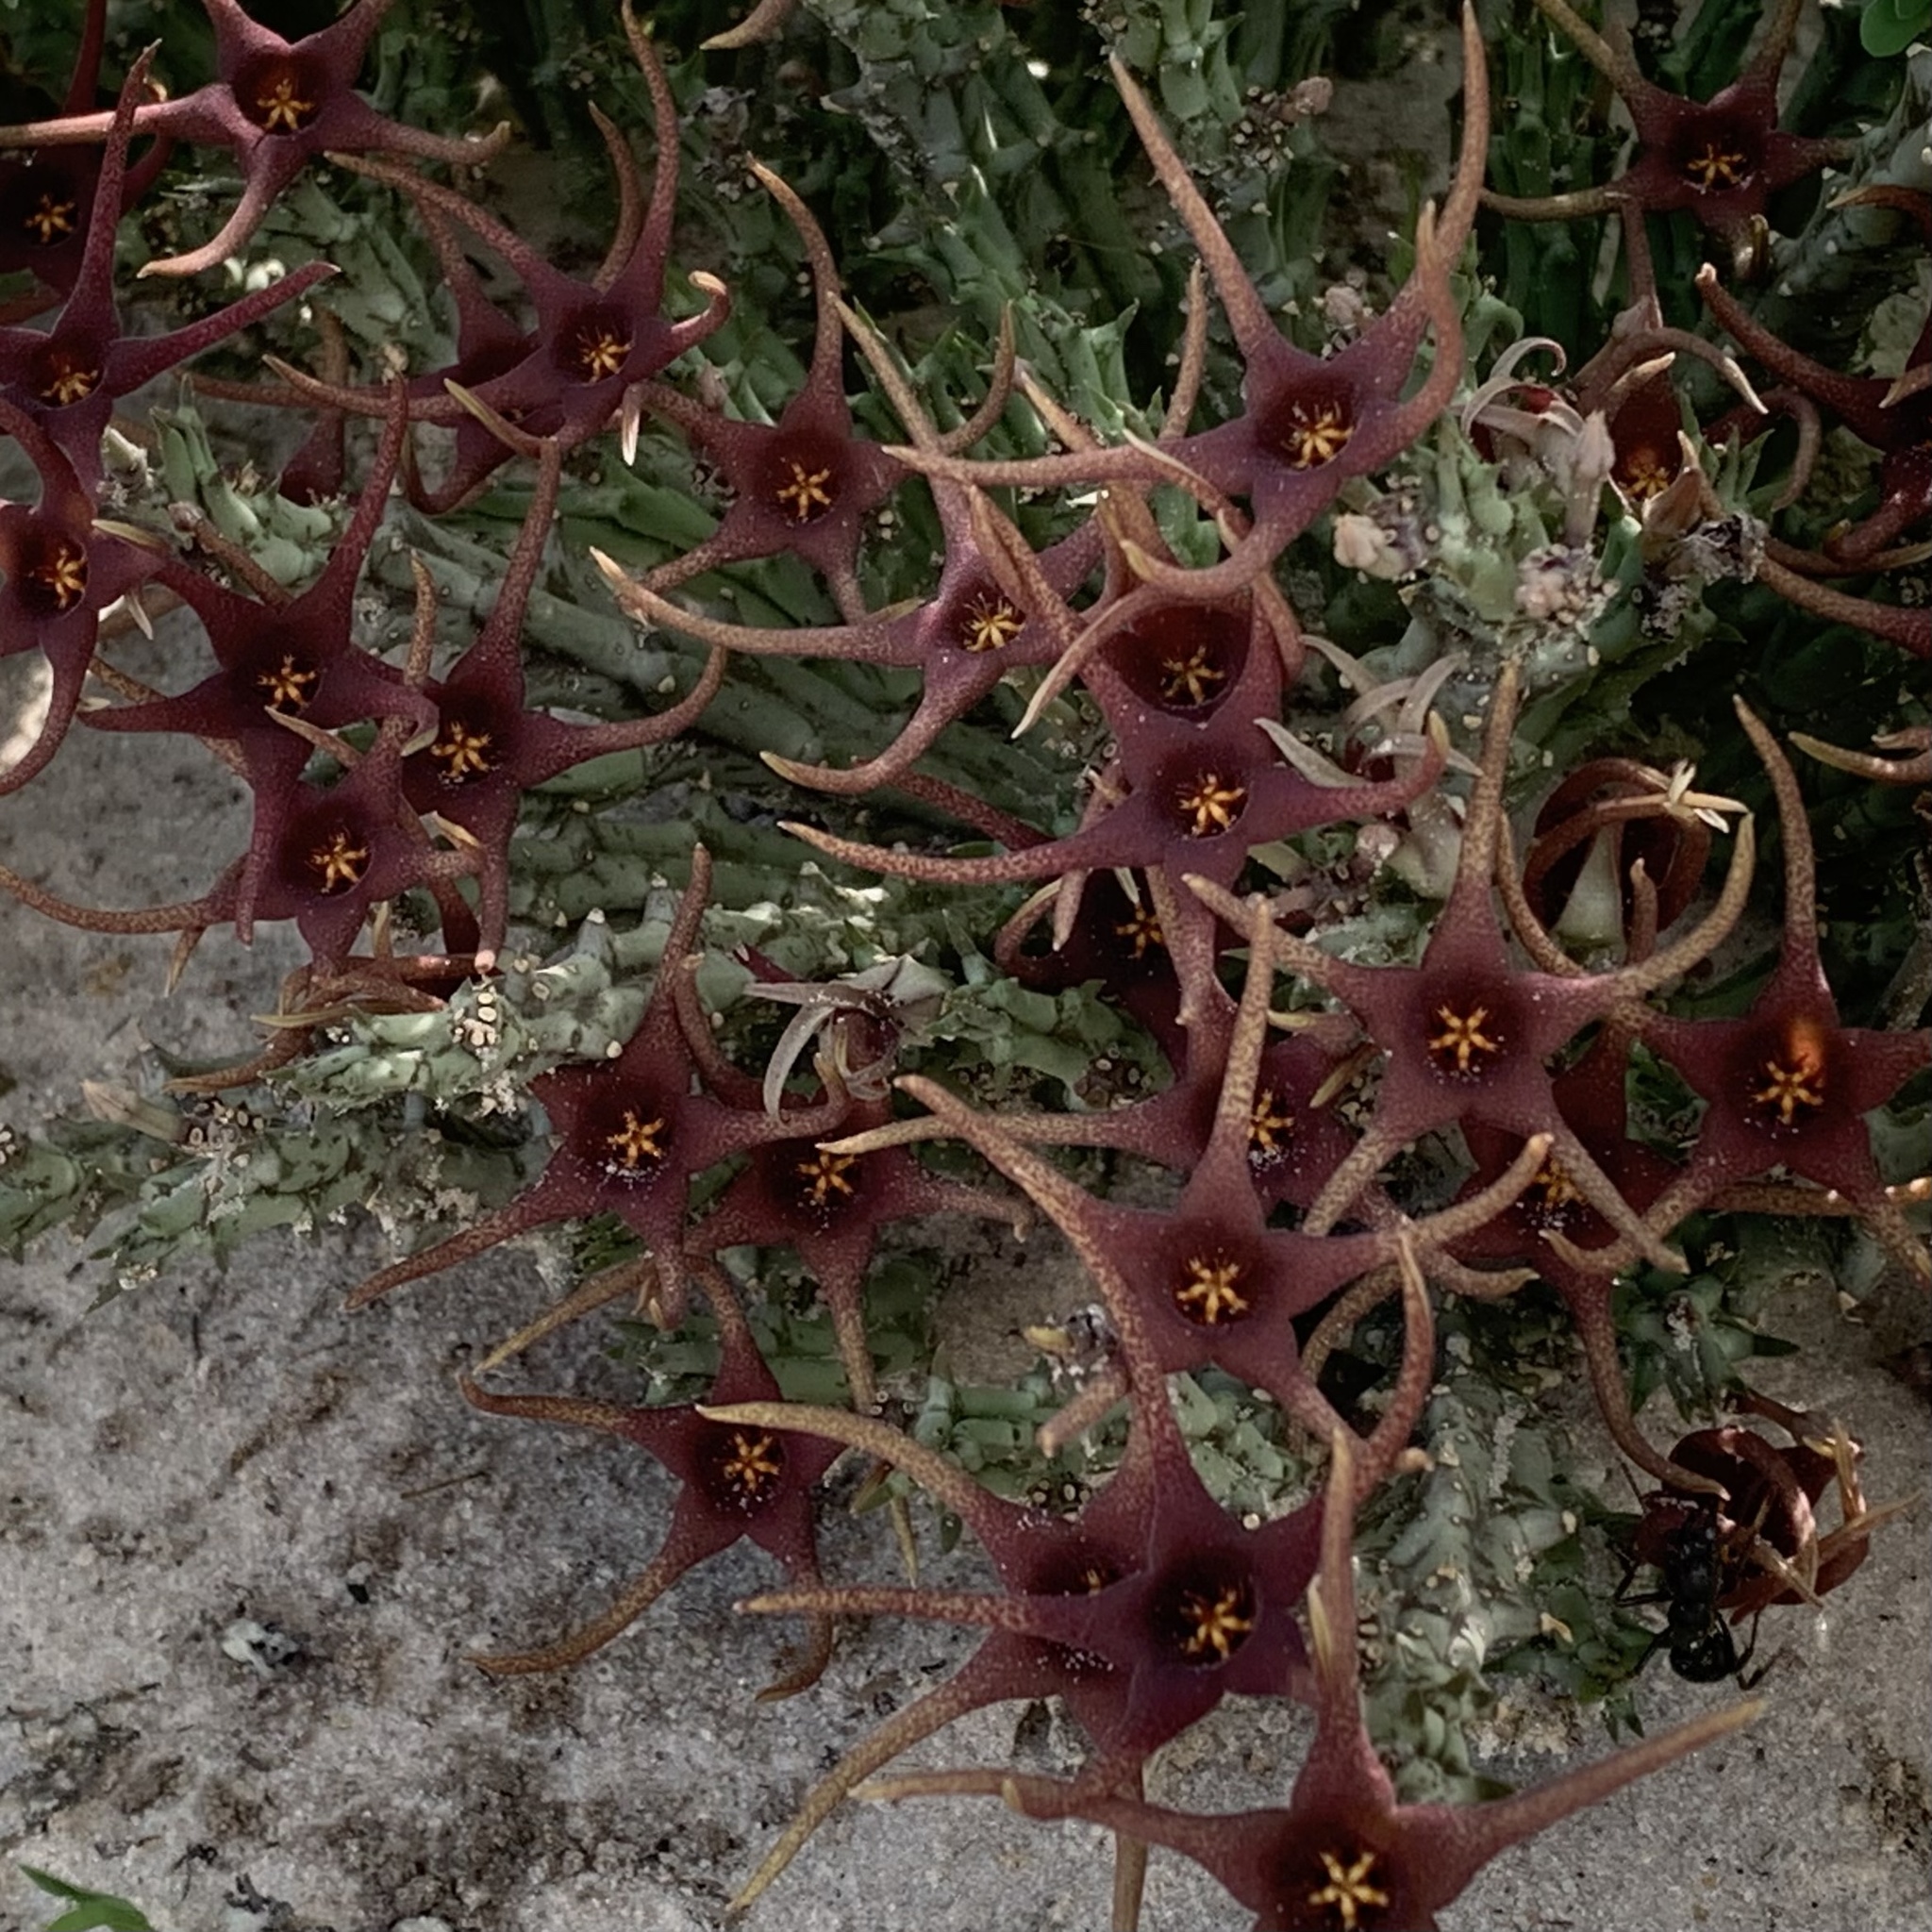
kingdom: Plantae
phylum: Tracheophyta
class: Magnoliopsida
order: Gentianales
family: Apocynaceae
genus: Ceropegia
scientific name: Ceropegia lugardiana
